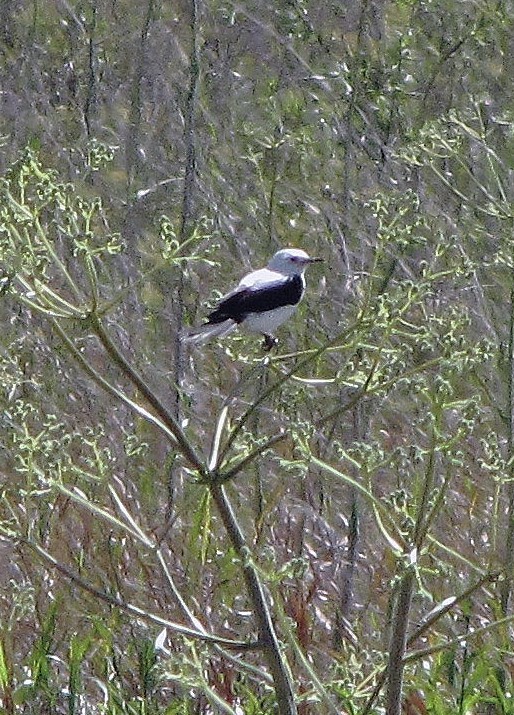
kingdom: Animalia
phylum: Chordata
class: Aves
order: Passeriformes
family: Tyrannidae
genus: Heteroxolmis
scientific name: Heteroxolmis dominicana
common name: Black-and-white monjita
